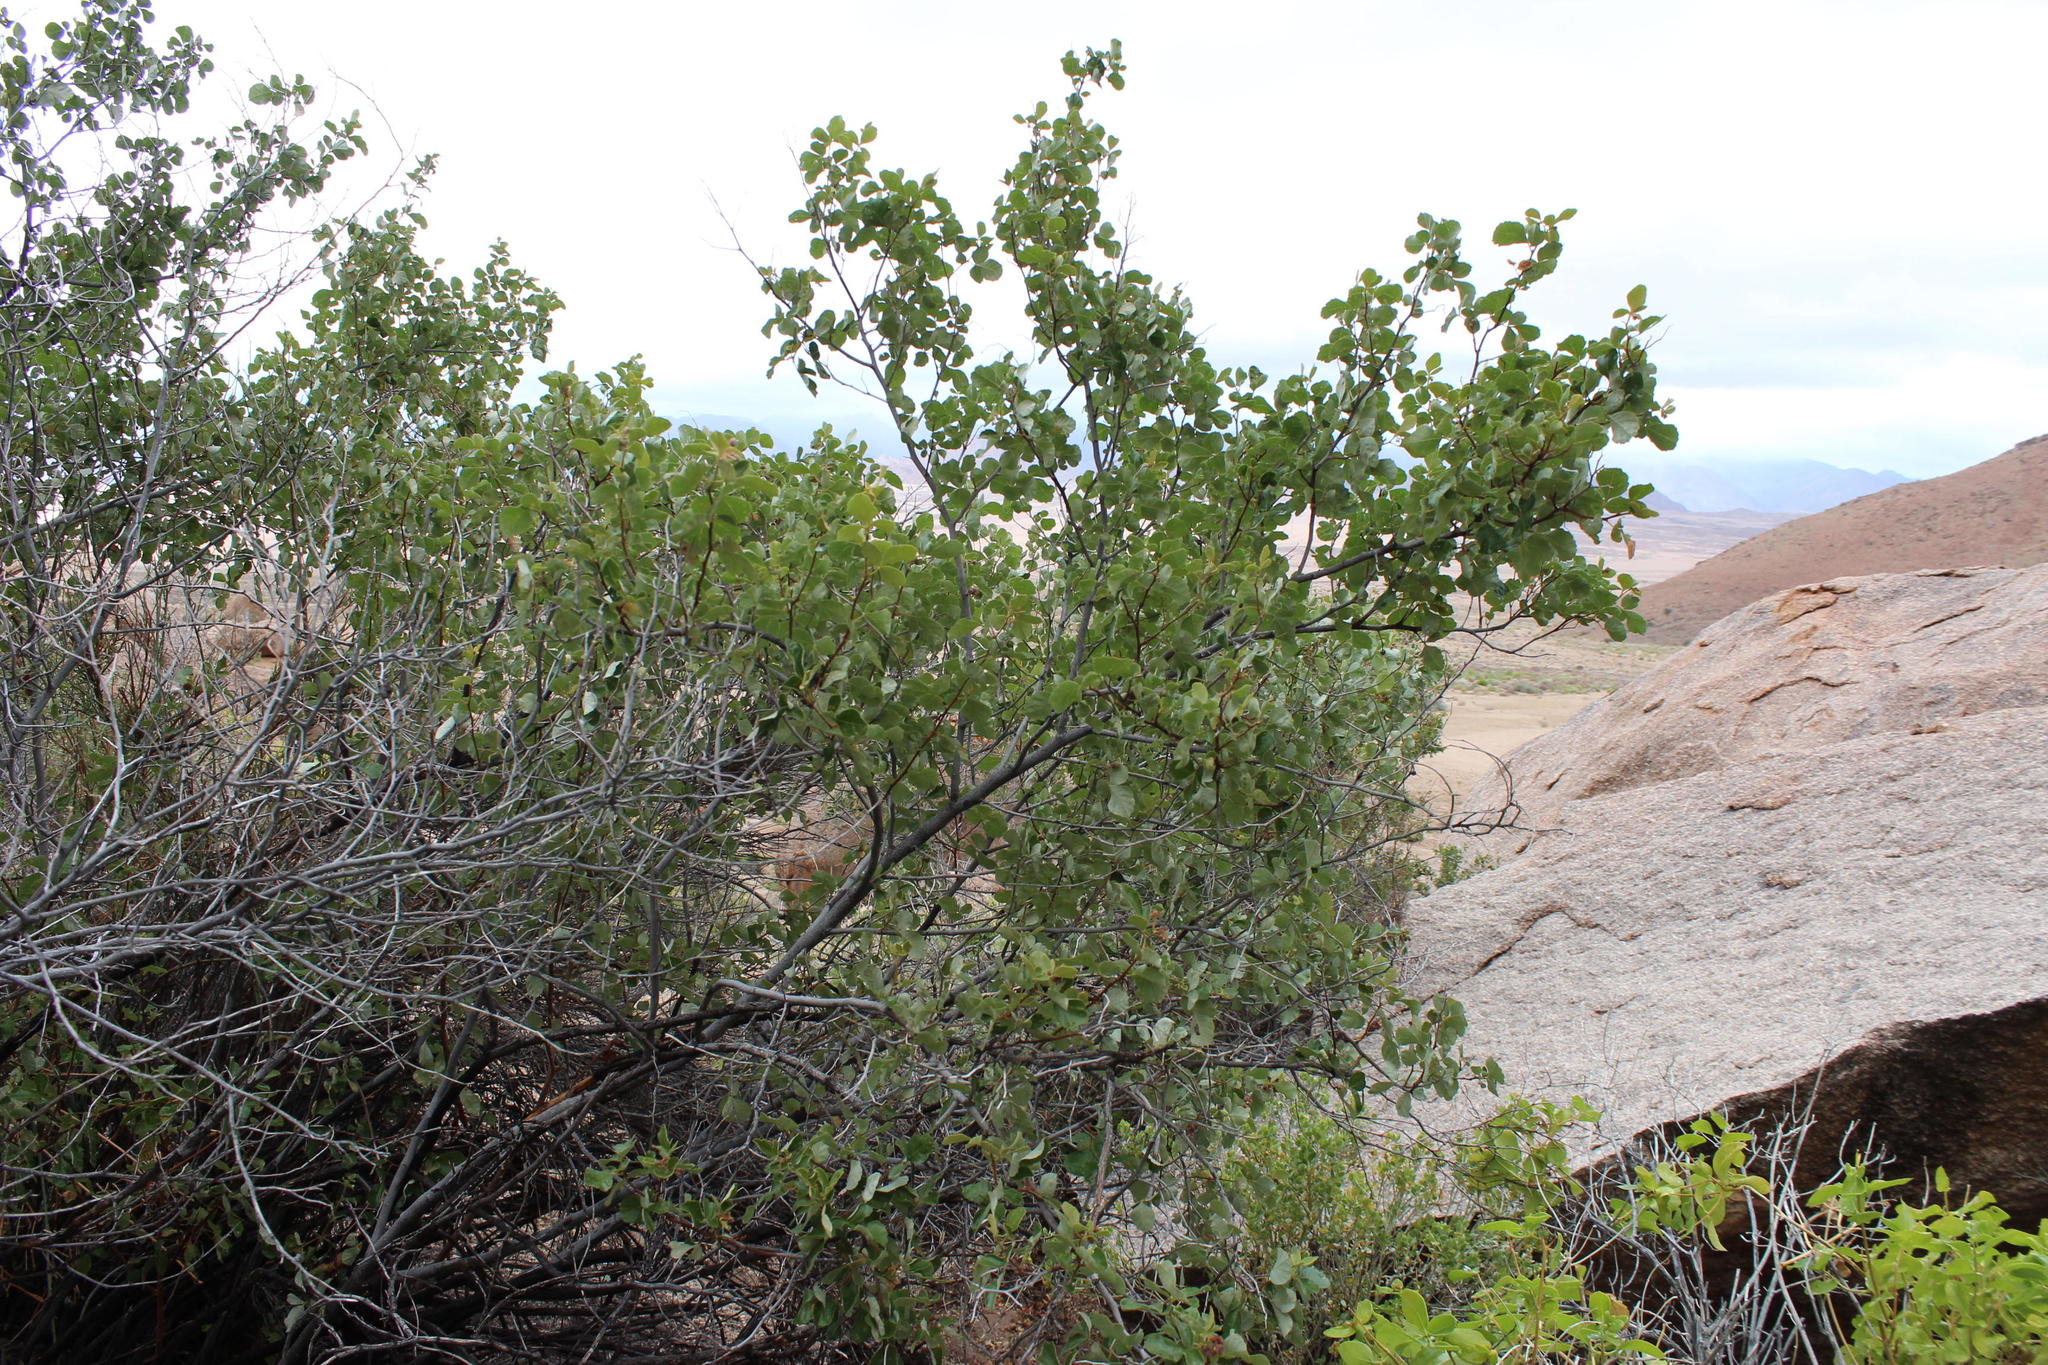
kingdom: Plantae
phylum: Tracheophyta
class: Magnoliopsida
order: Sapindales
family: Anacardiaceae
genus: Searsia
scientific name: Searsia populifolia
